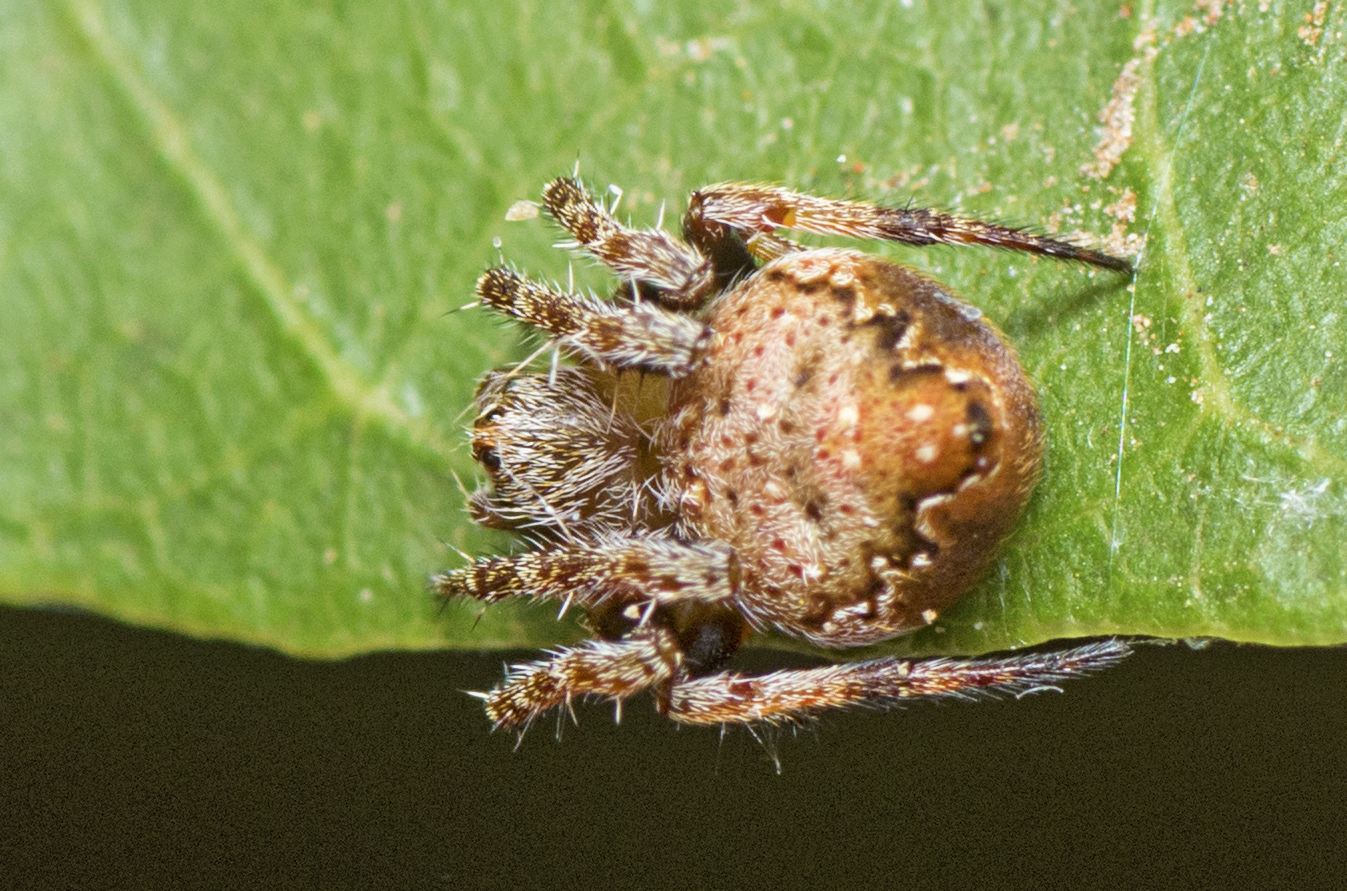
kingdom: Animalia
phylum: Arthropoda
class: Arachnida
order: Araneae
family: Araneidae
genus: Araneus
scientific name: Araneus acuminatus
